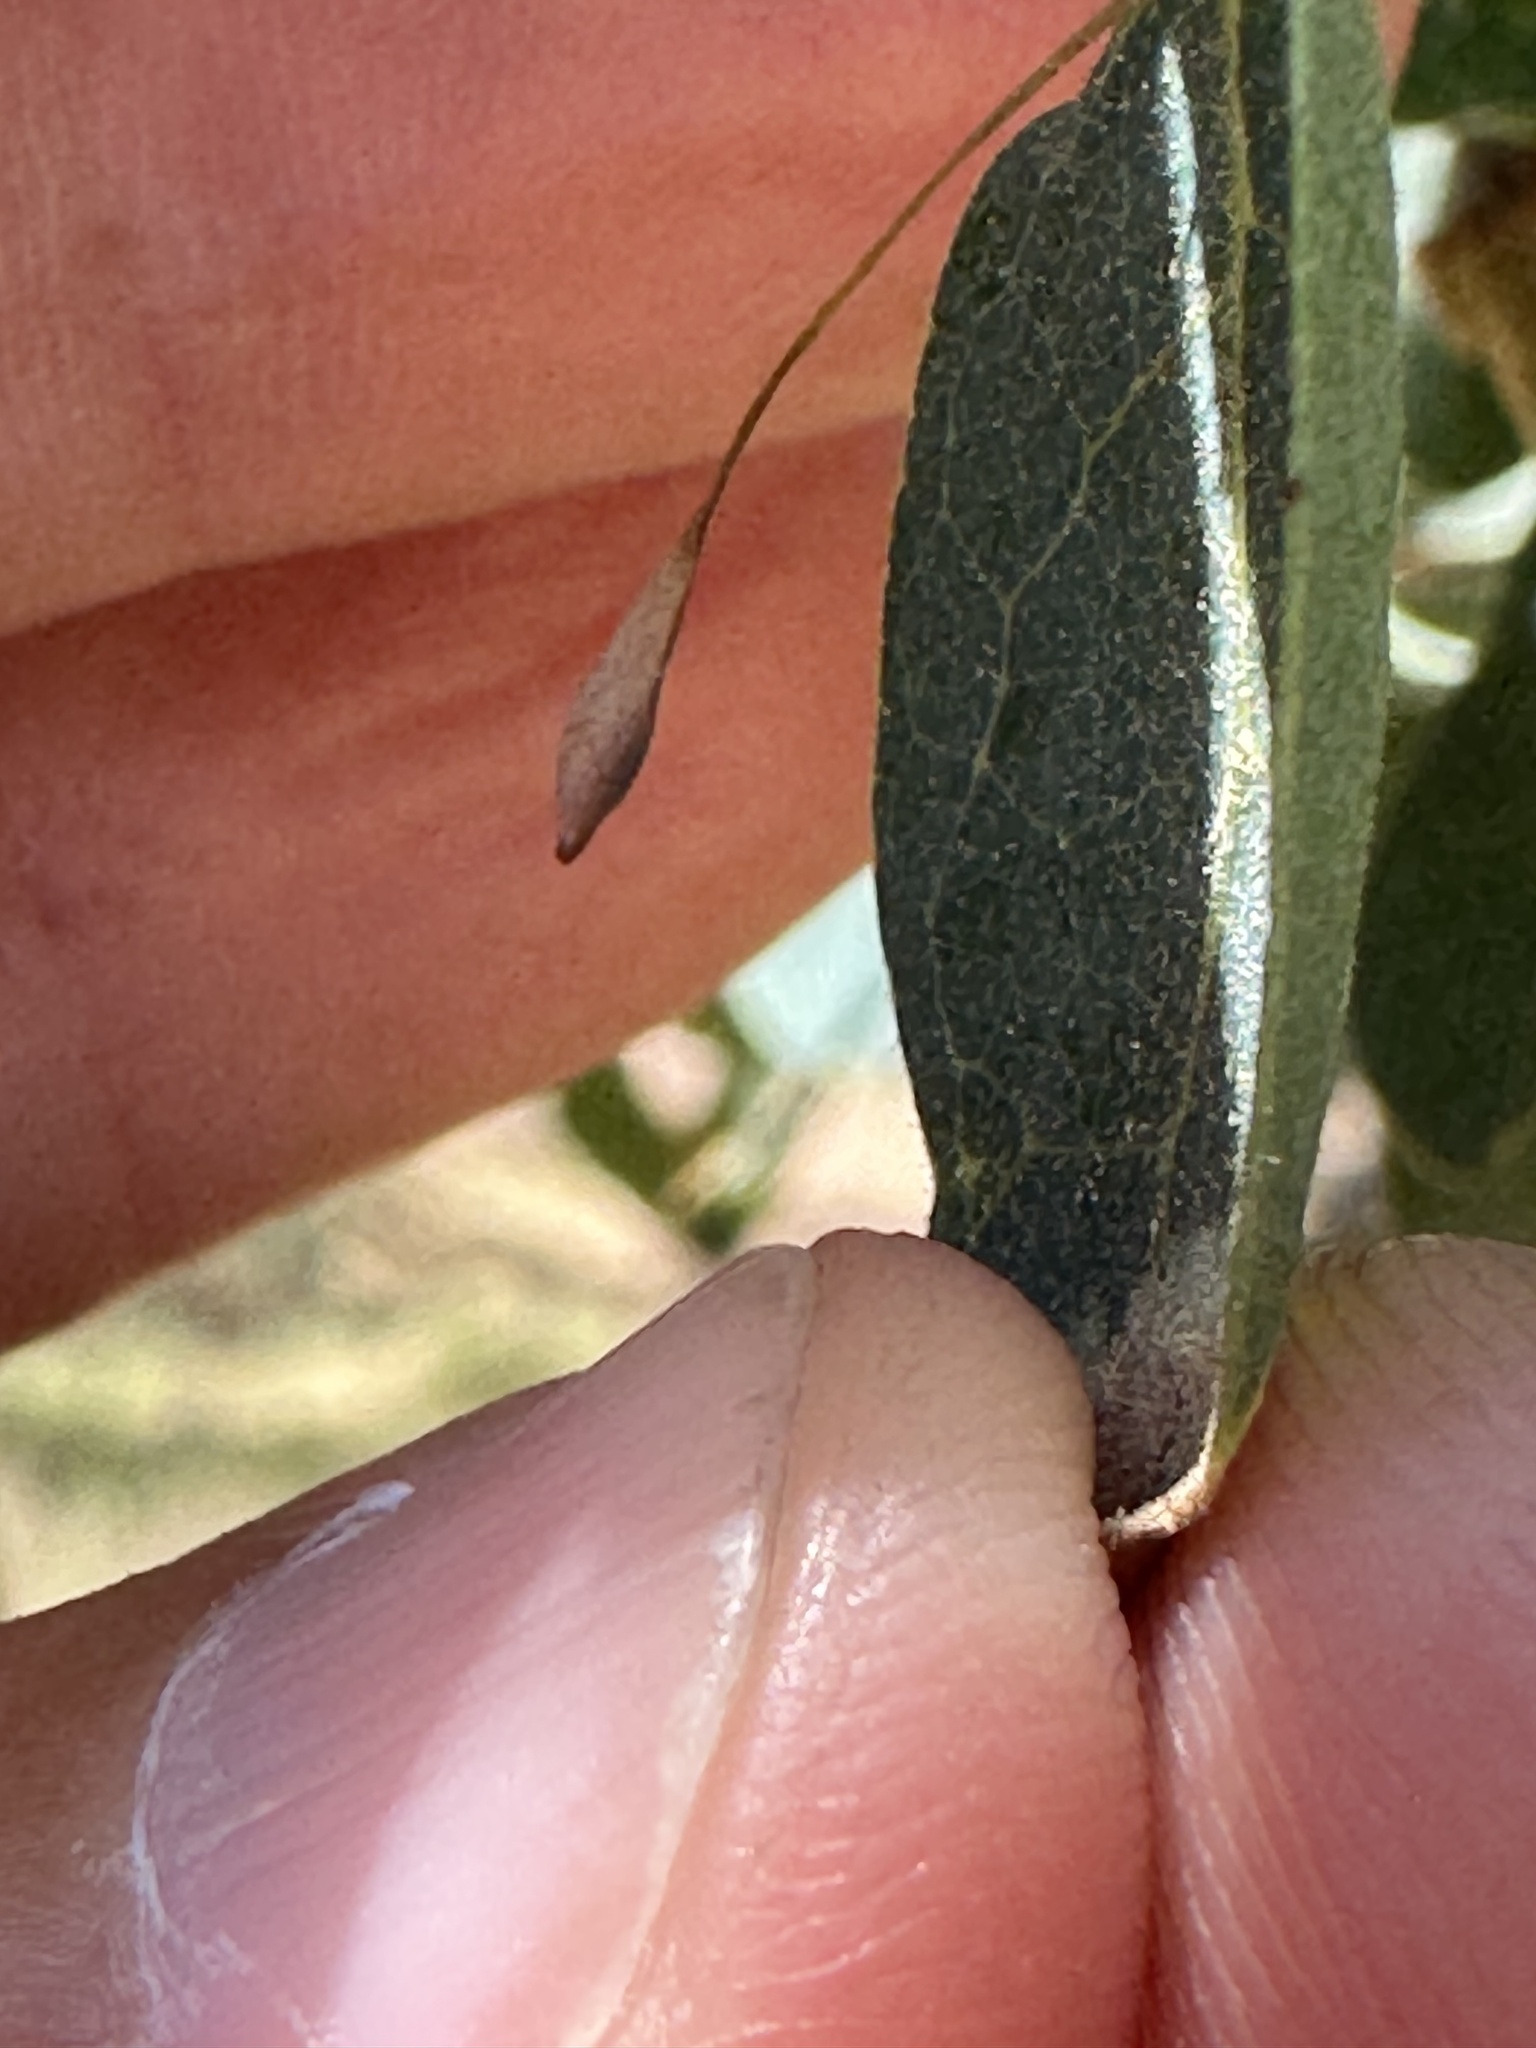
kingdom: Animalia
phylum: Arthropoda
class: Insecta
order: Hymenoptera
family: Cynipidae
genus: Andricus
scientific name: Andricus
